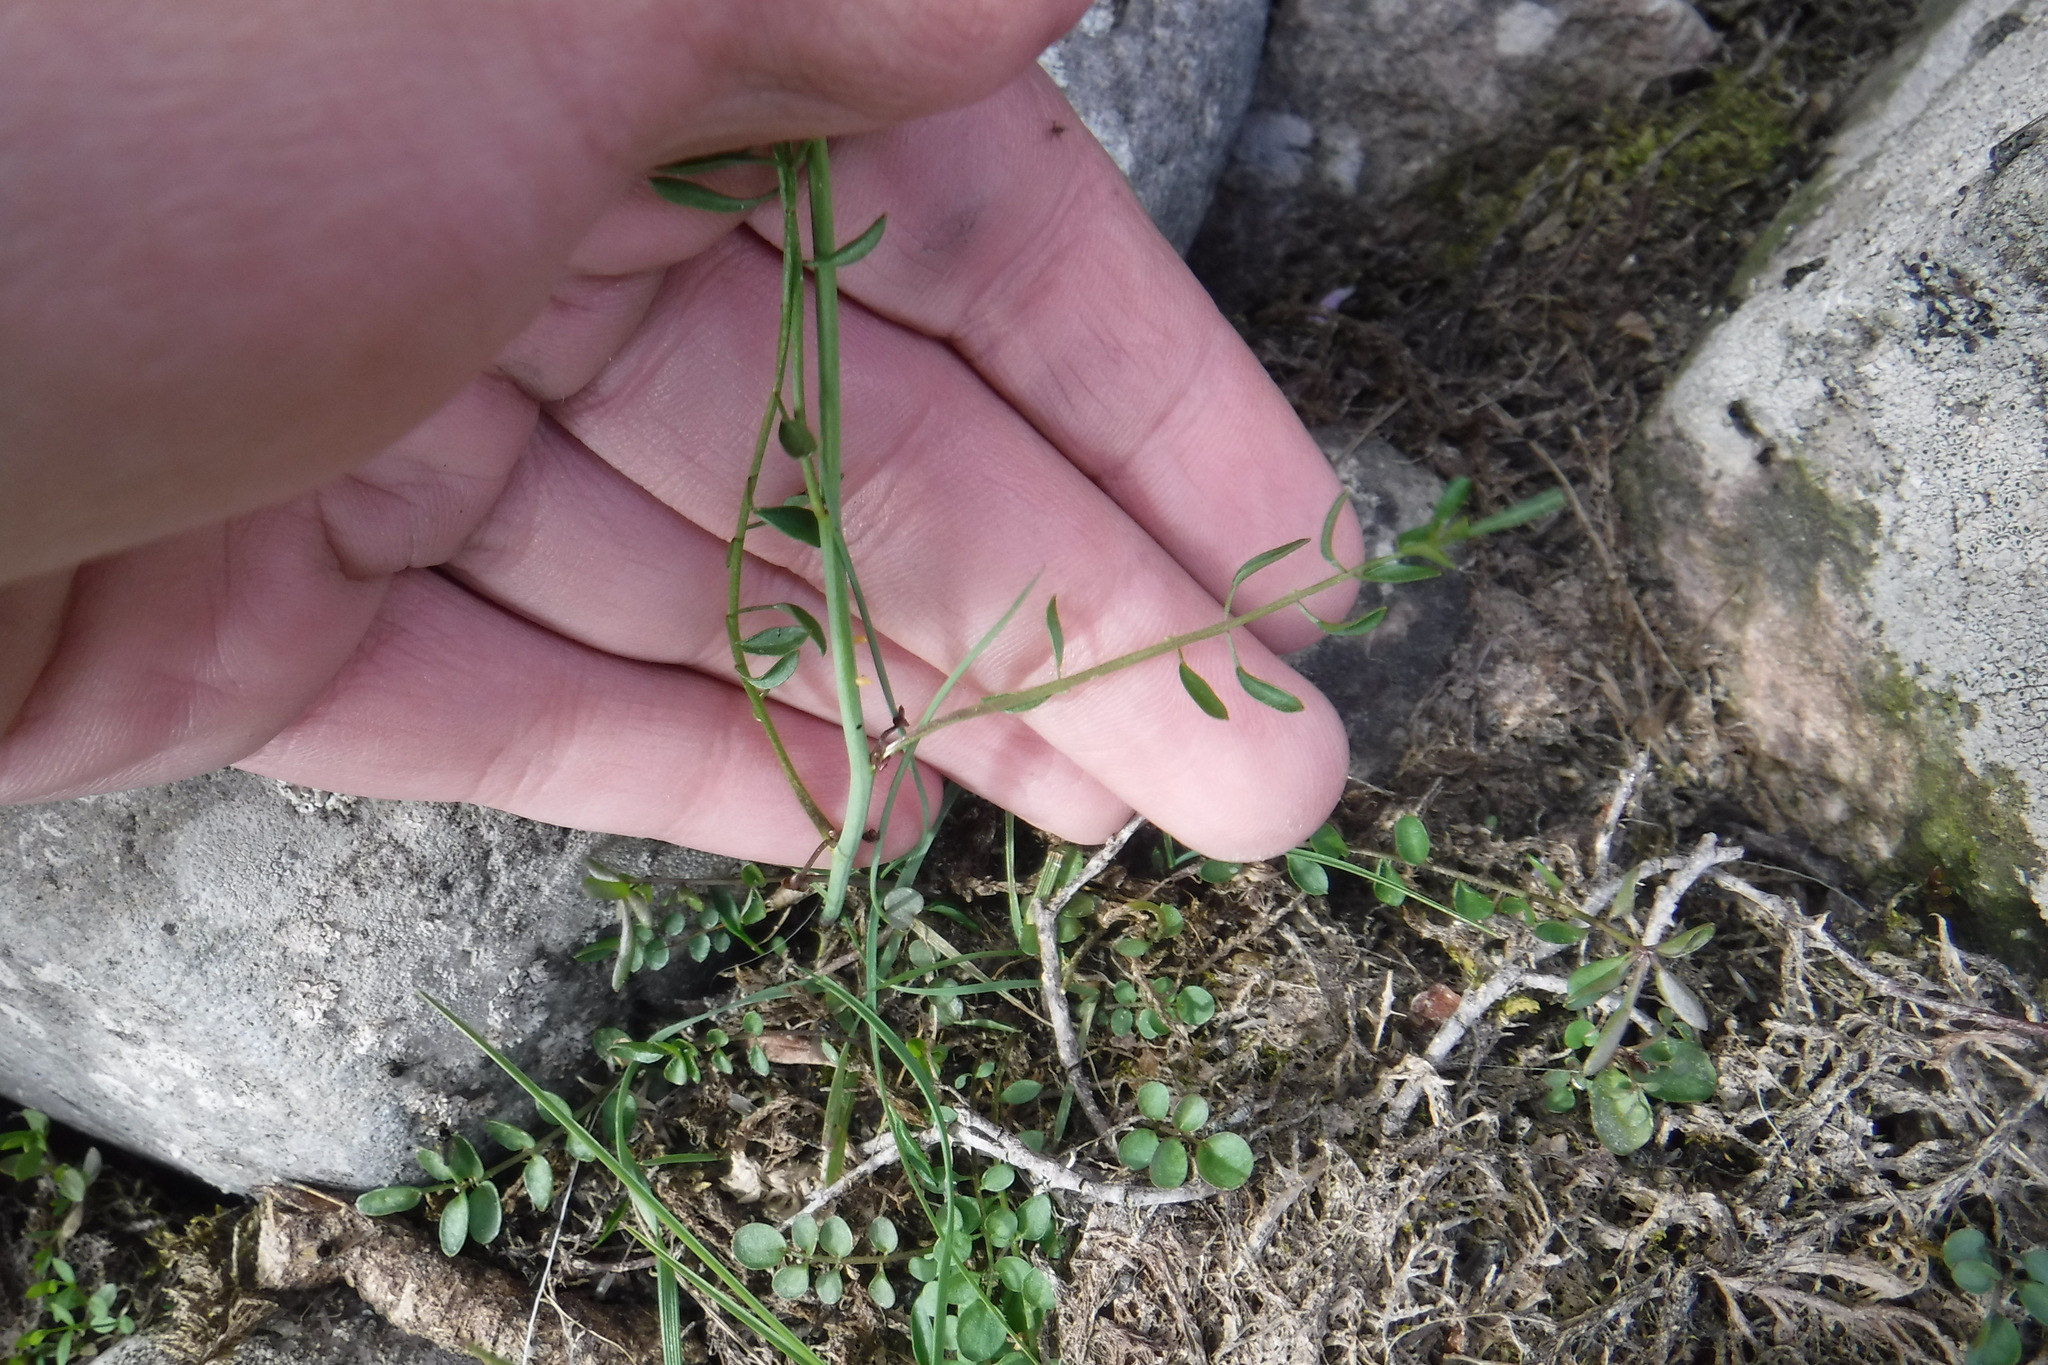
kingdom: Plantae
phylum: Tracheophyta
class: Magnoliopsida
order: Brassicales
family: Brassicaceae
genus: Cardamine
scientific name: Cardamine nymanii
